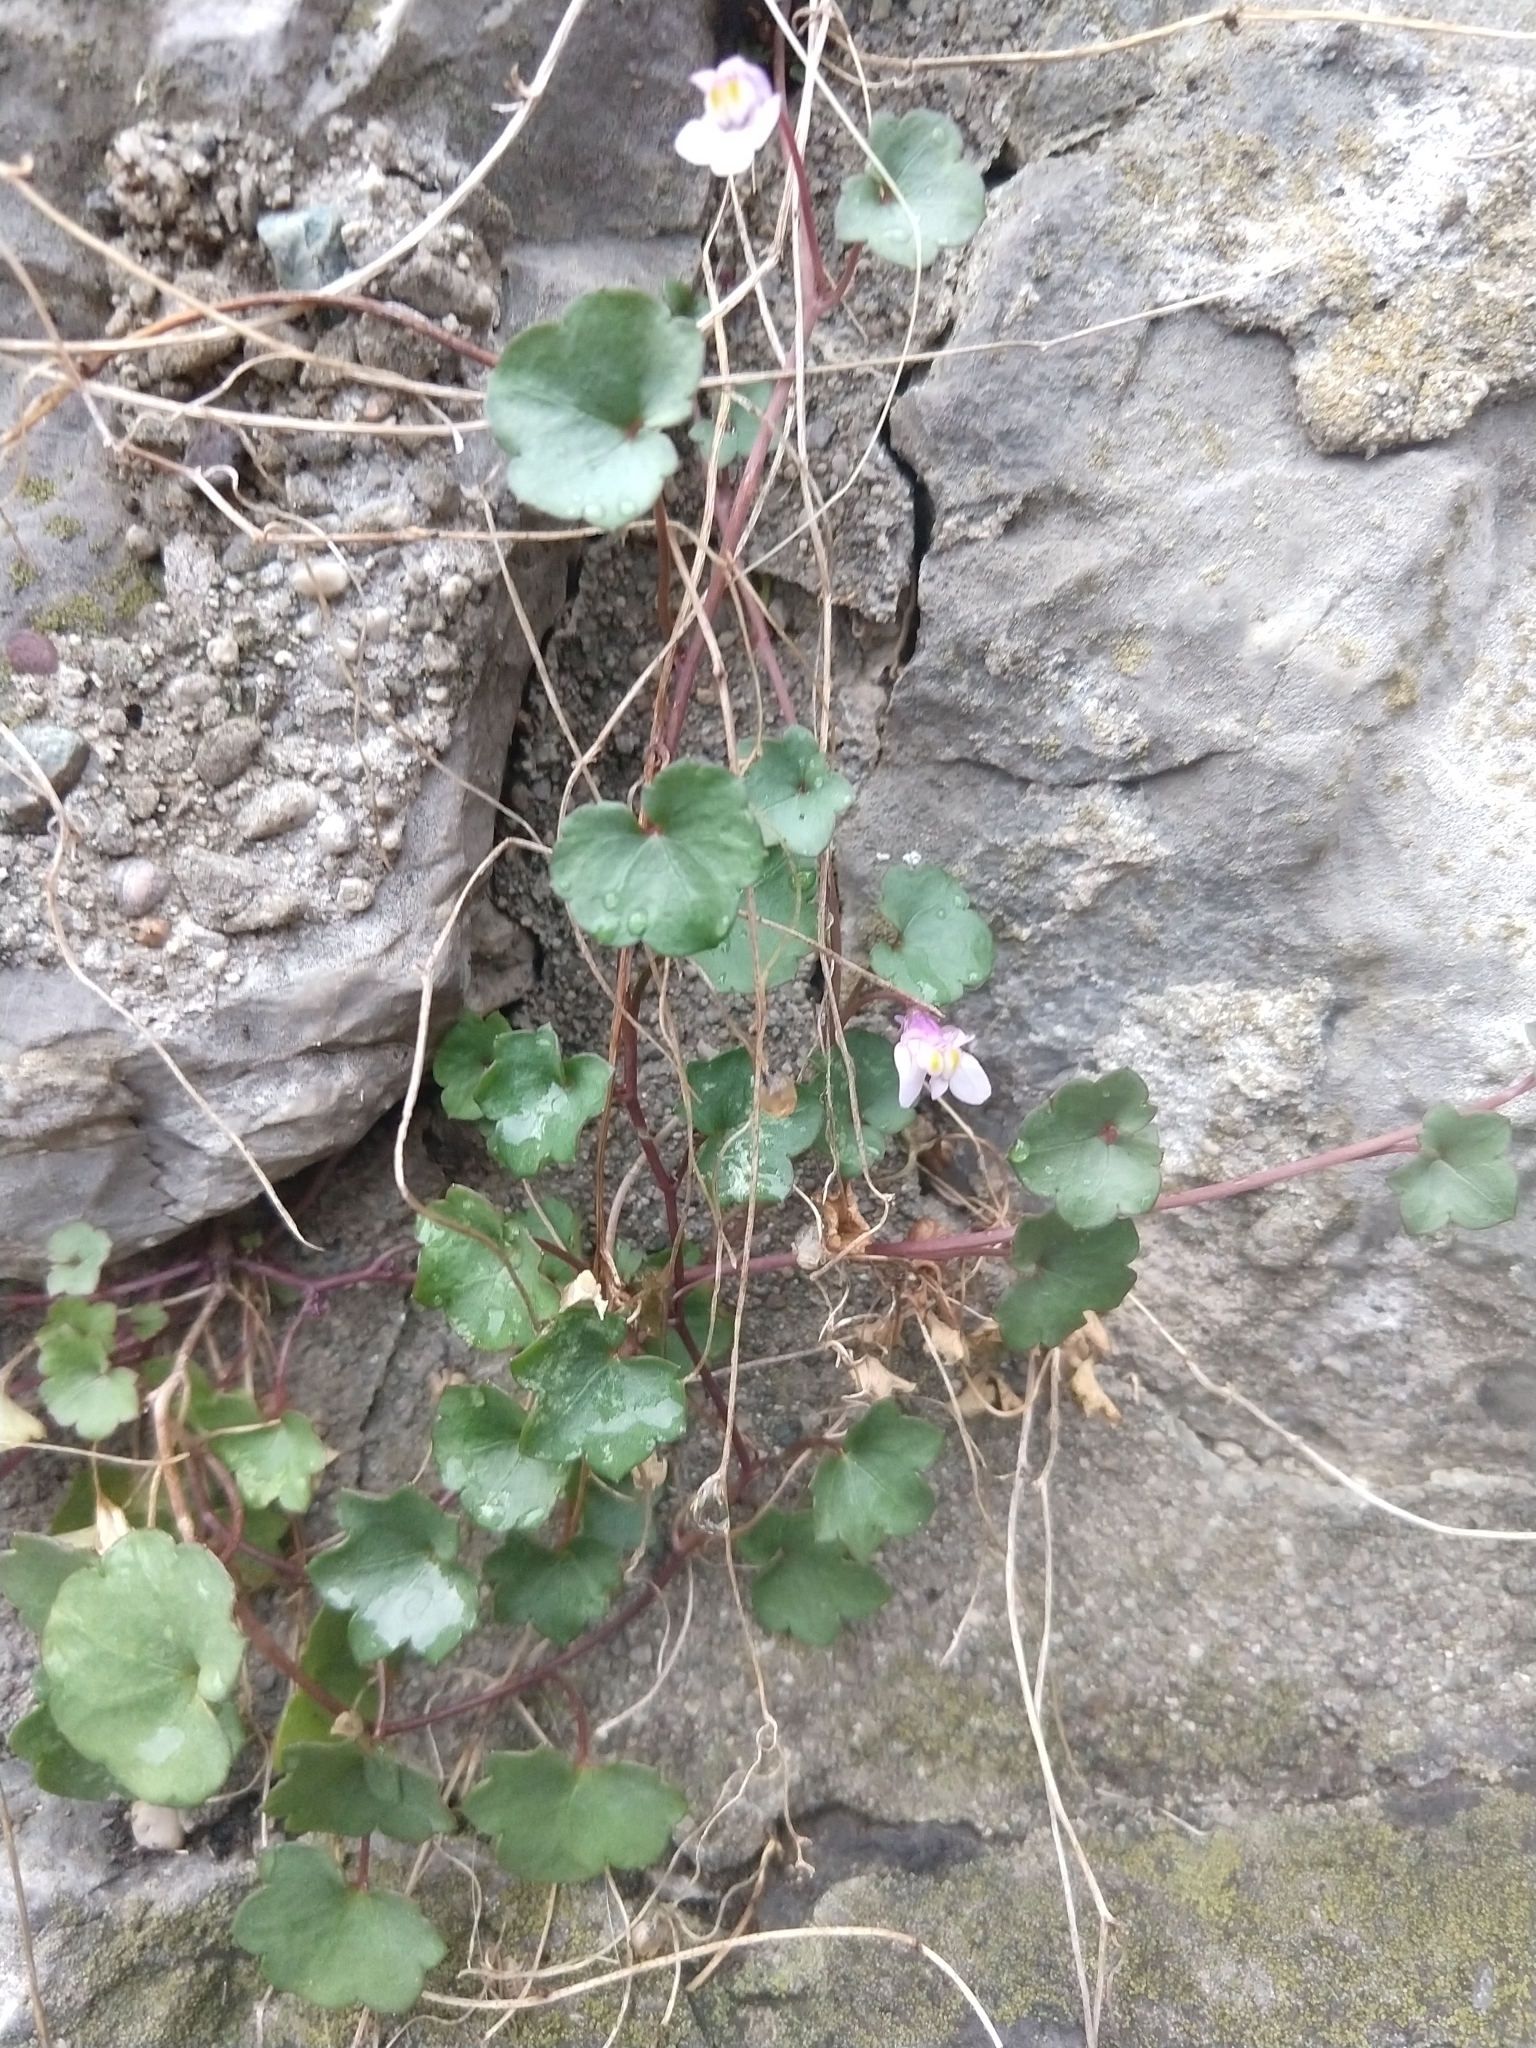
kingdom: Plantae
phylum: Tracheophyta
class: Magnoliopsida
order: Lamiales
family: Plantaginaceae
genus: Cymbalaria
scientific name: Cymbalaria muralis
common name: Ivy-leaved toadflax
